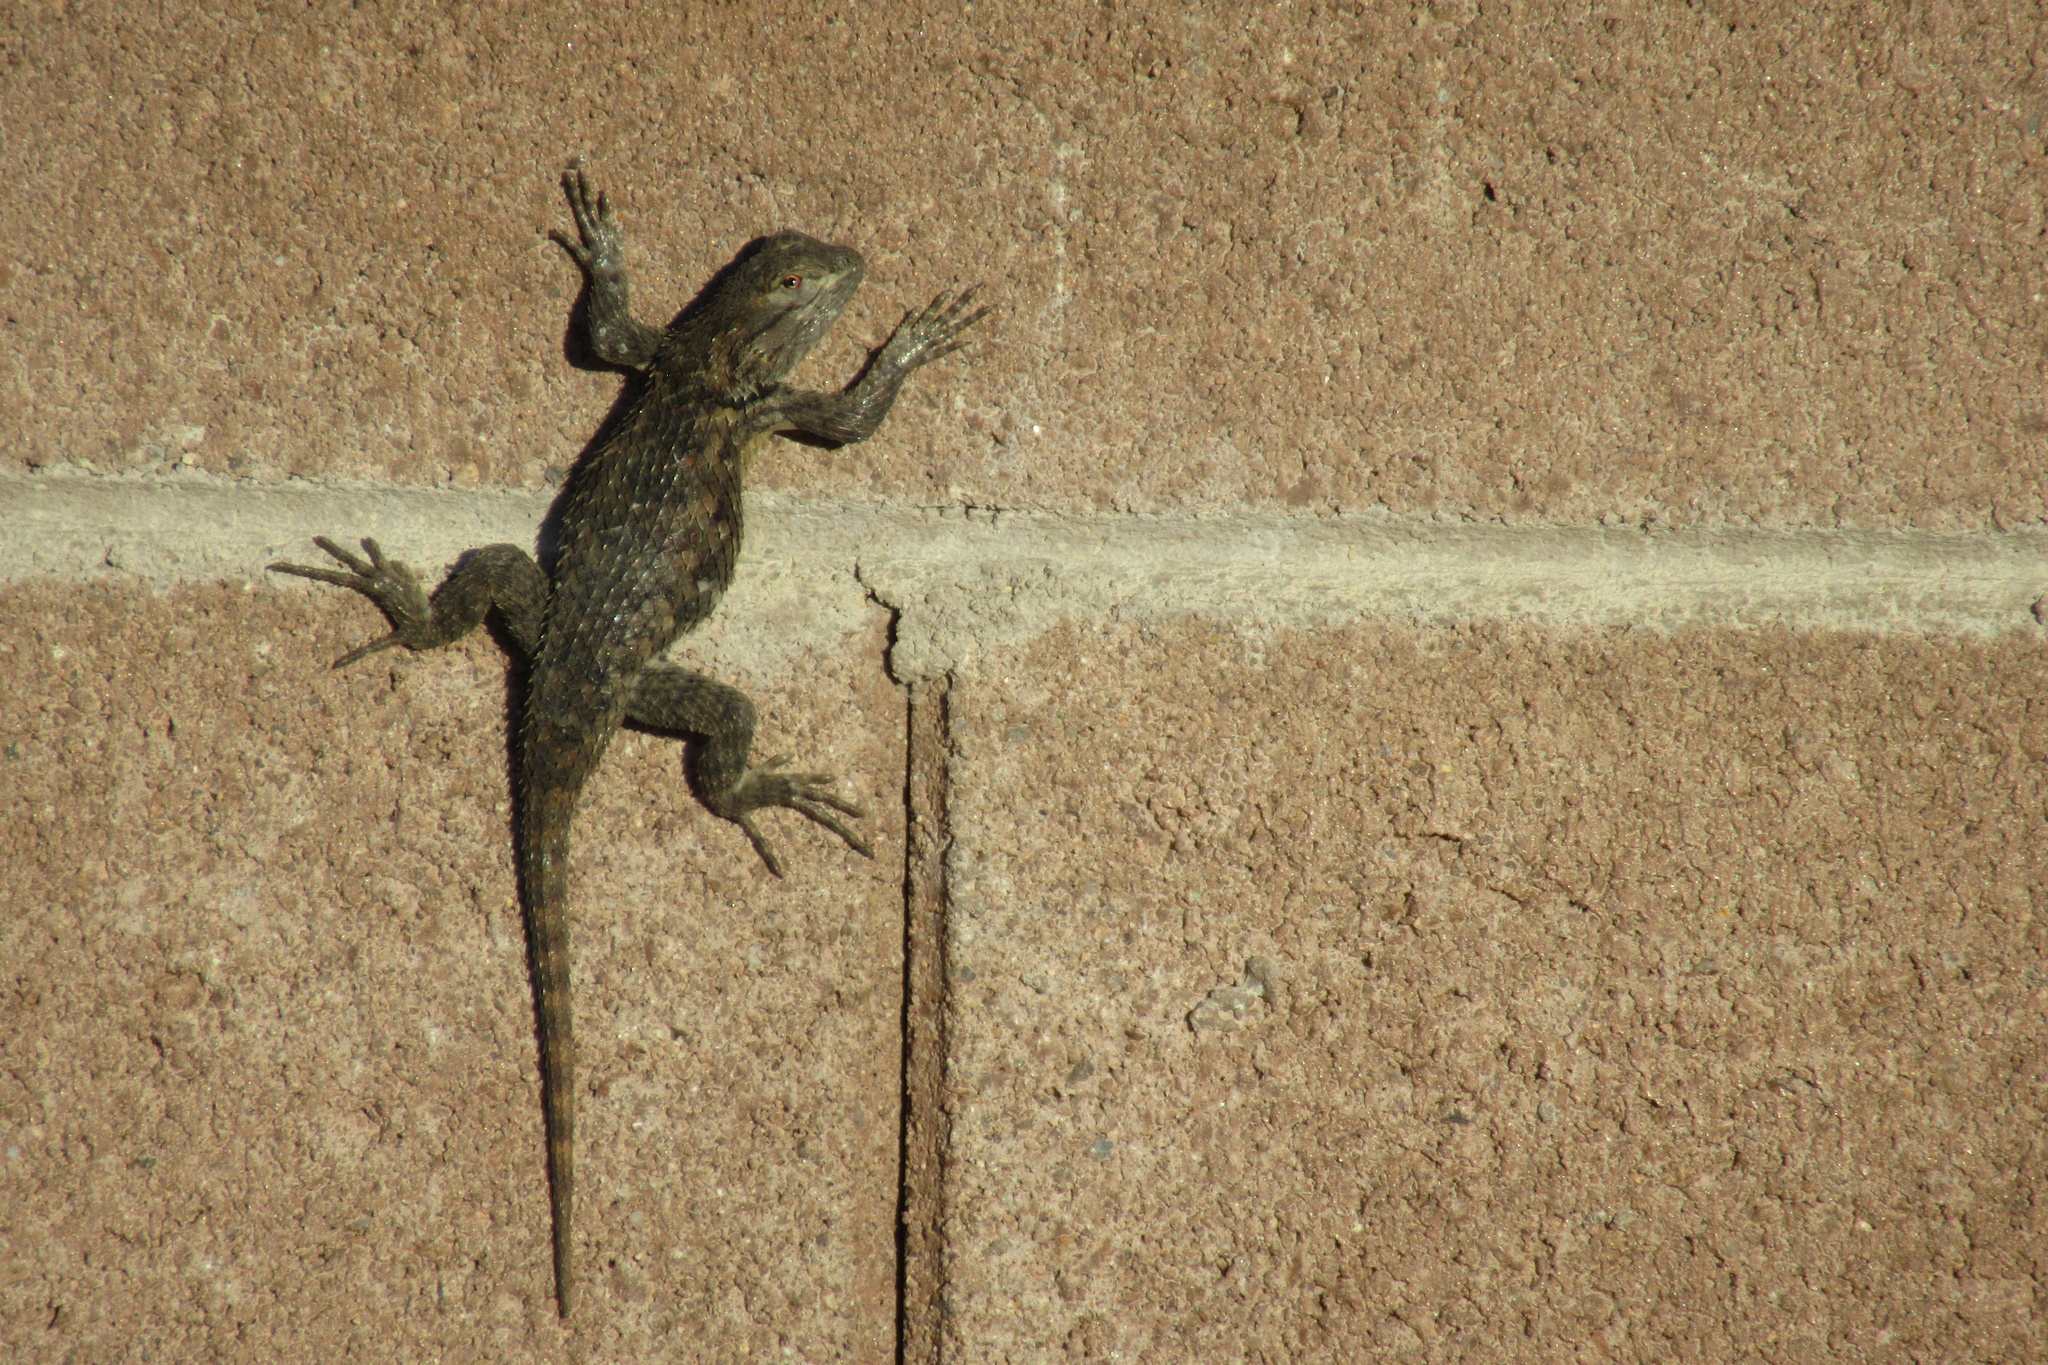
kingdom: Animalia
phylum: Chordata
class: Squamata
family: Phrynosomatidae
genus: Sceloporus
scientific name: Sceloporus magister
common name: Desert spiny lizard
